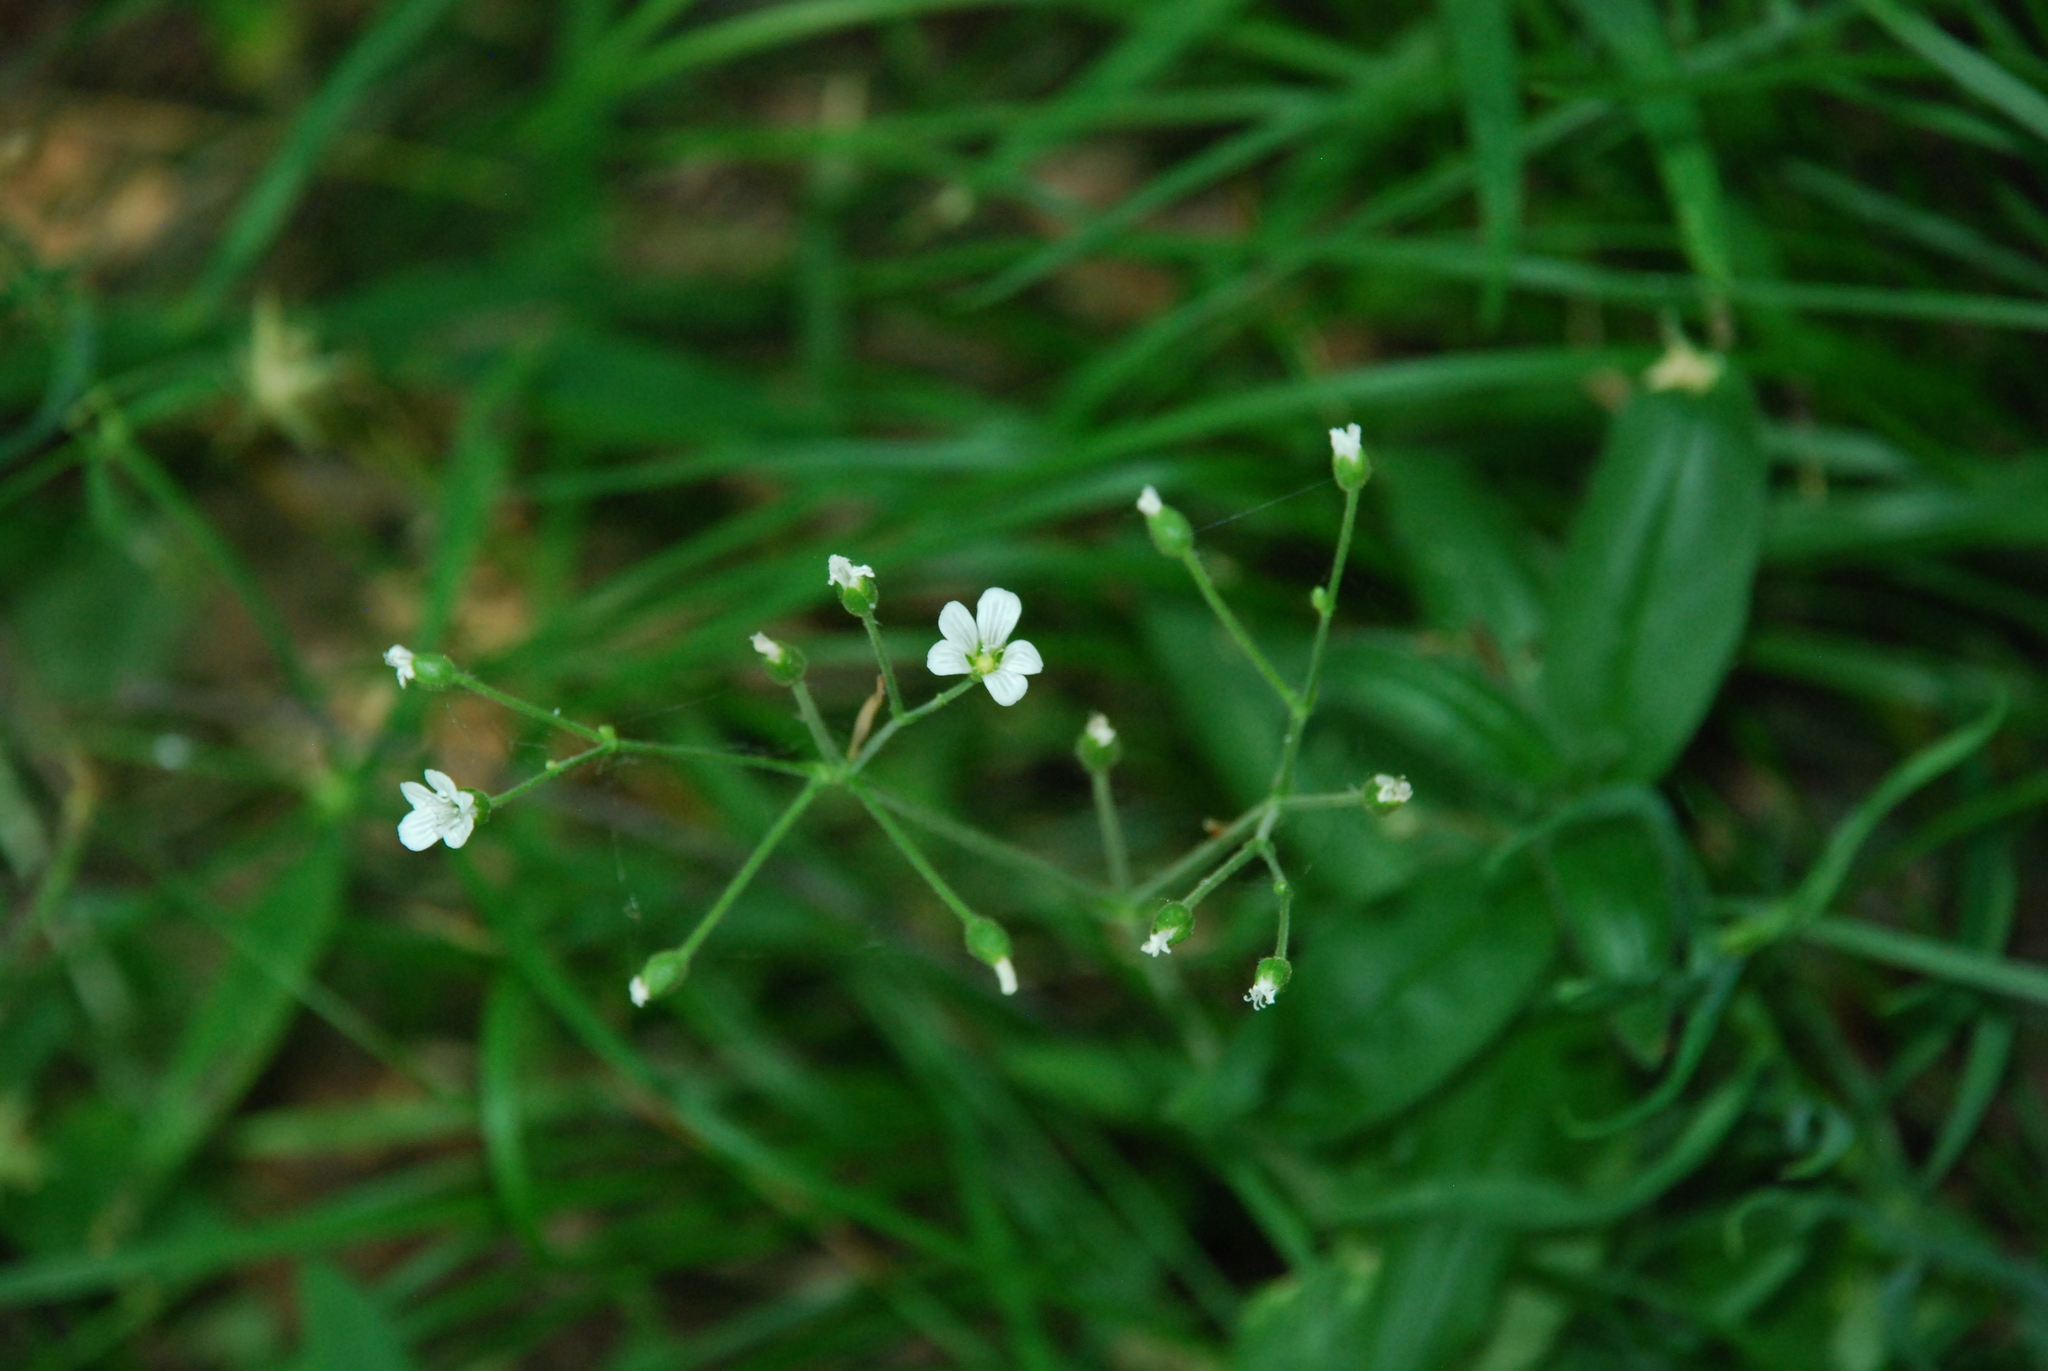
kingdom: Plantae
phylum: Tracheophyta
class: Magnoliopsida
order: Caryophyllales
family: Caryophyllaceae
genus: Cerastium
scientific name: Cerastium pauciflorum
